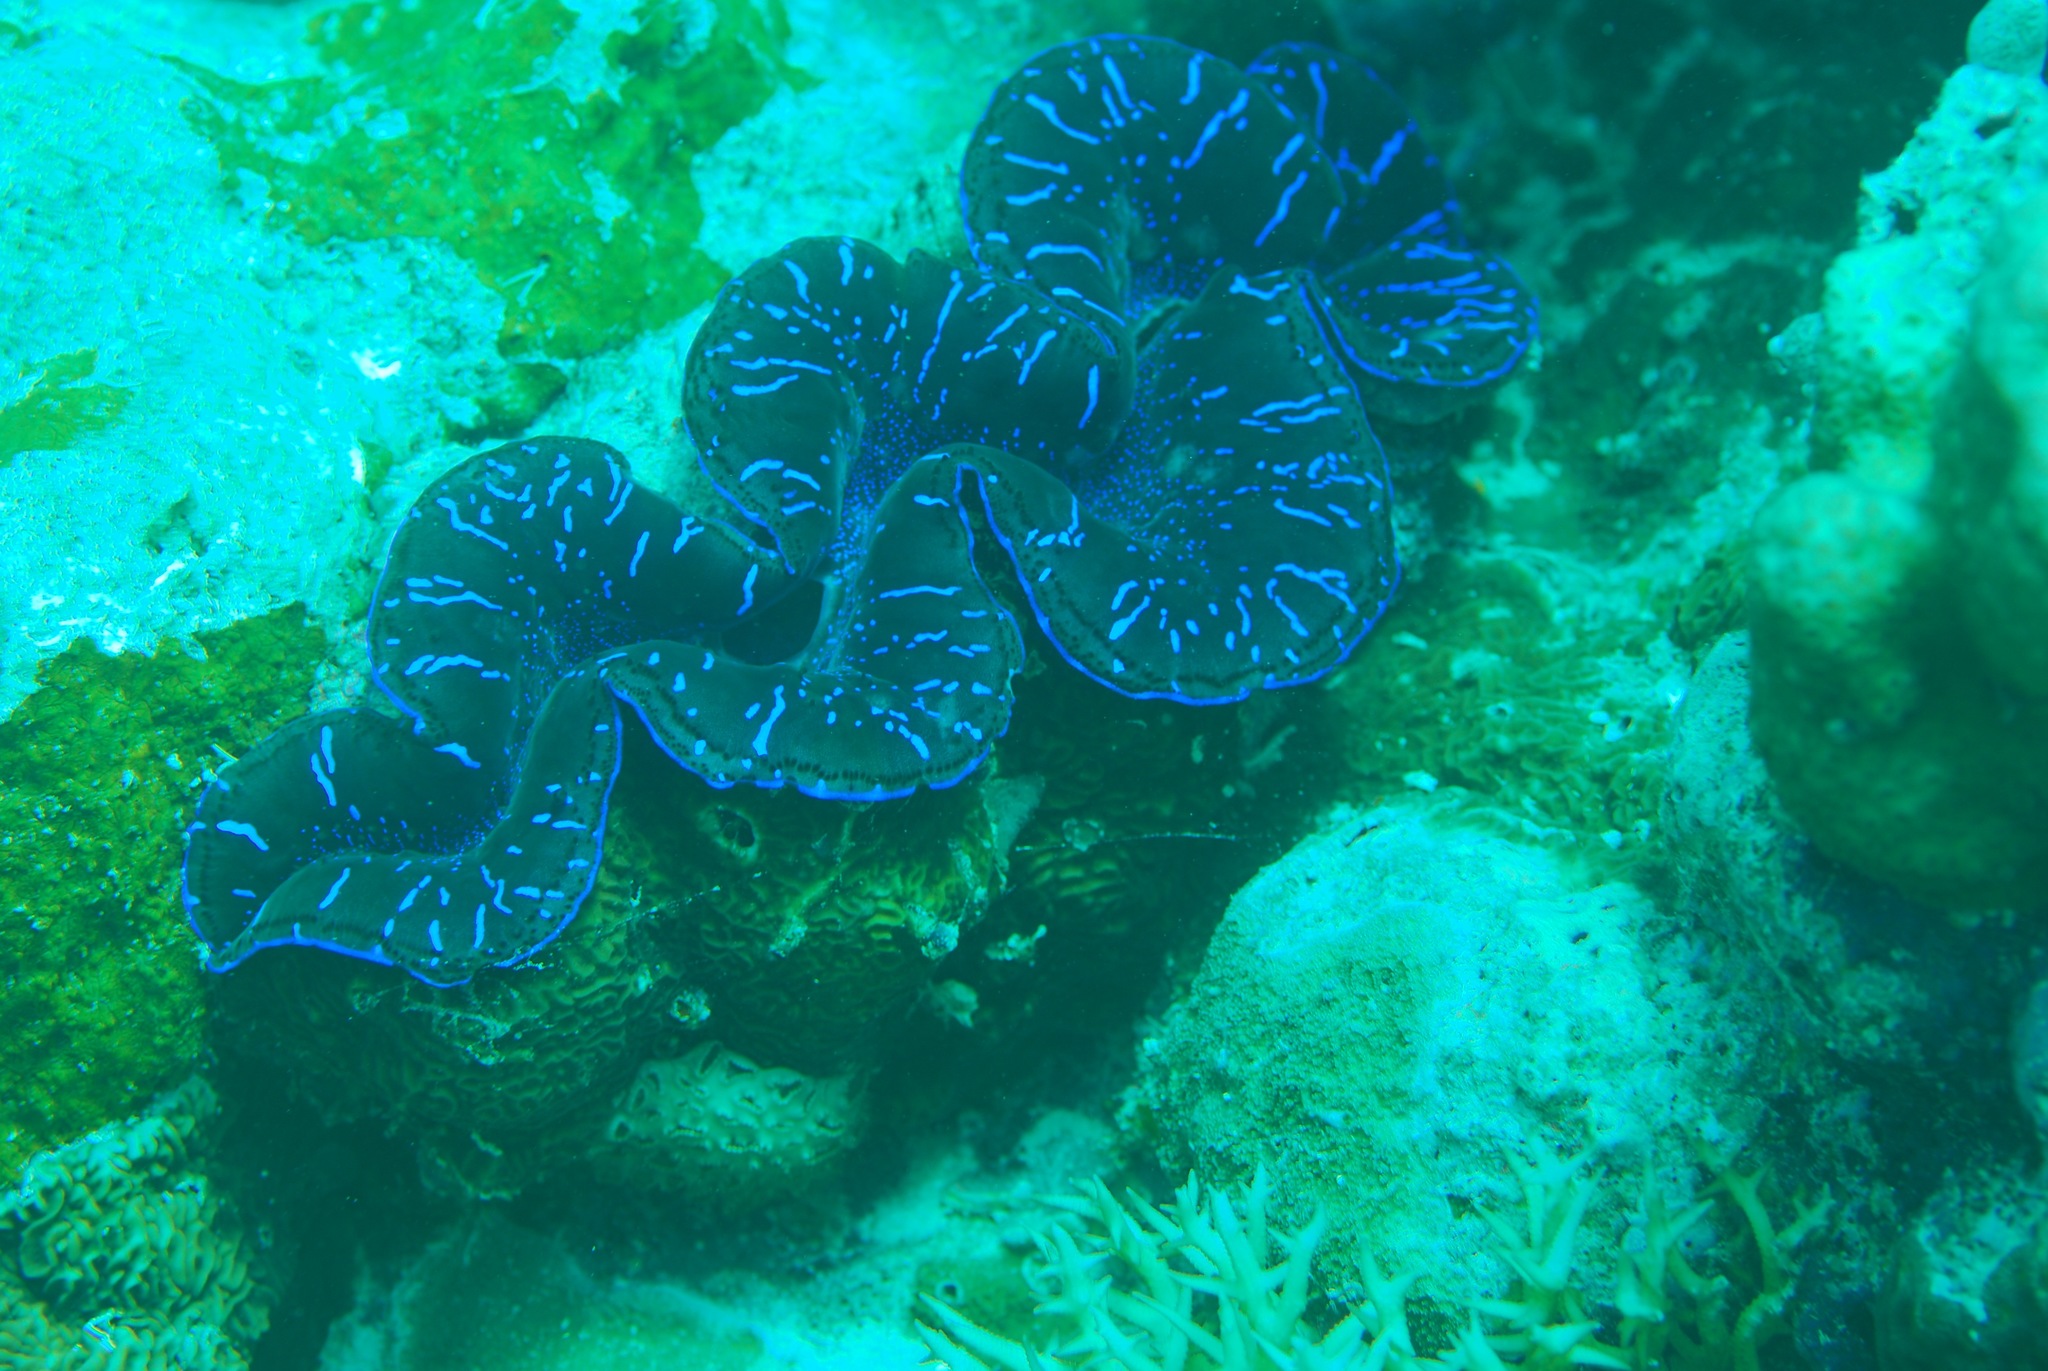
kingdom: Animalia
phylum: Mollusca
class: Bivalvia
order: Cardiida
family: Cardiidae
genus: Tridacna
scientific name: Tridacna maxima
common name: Small giant clam
